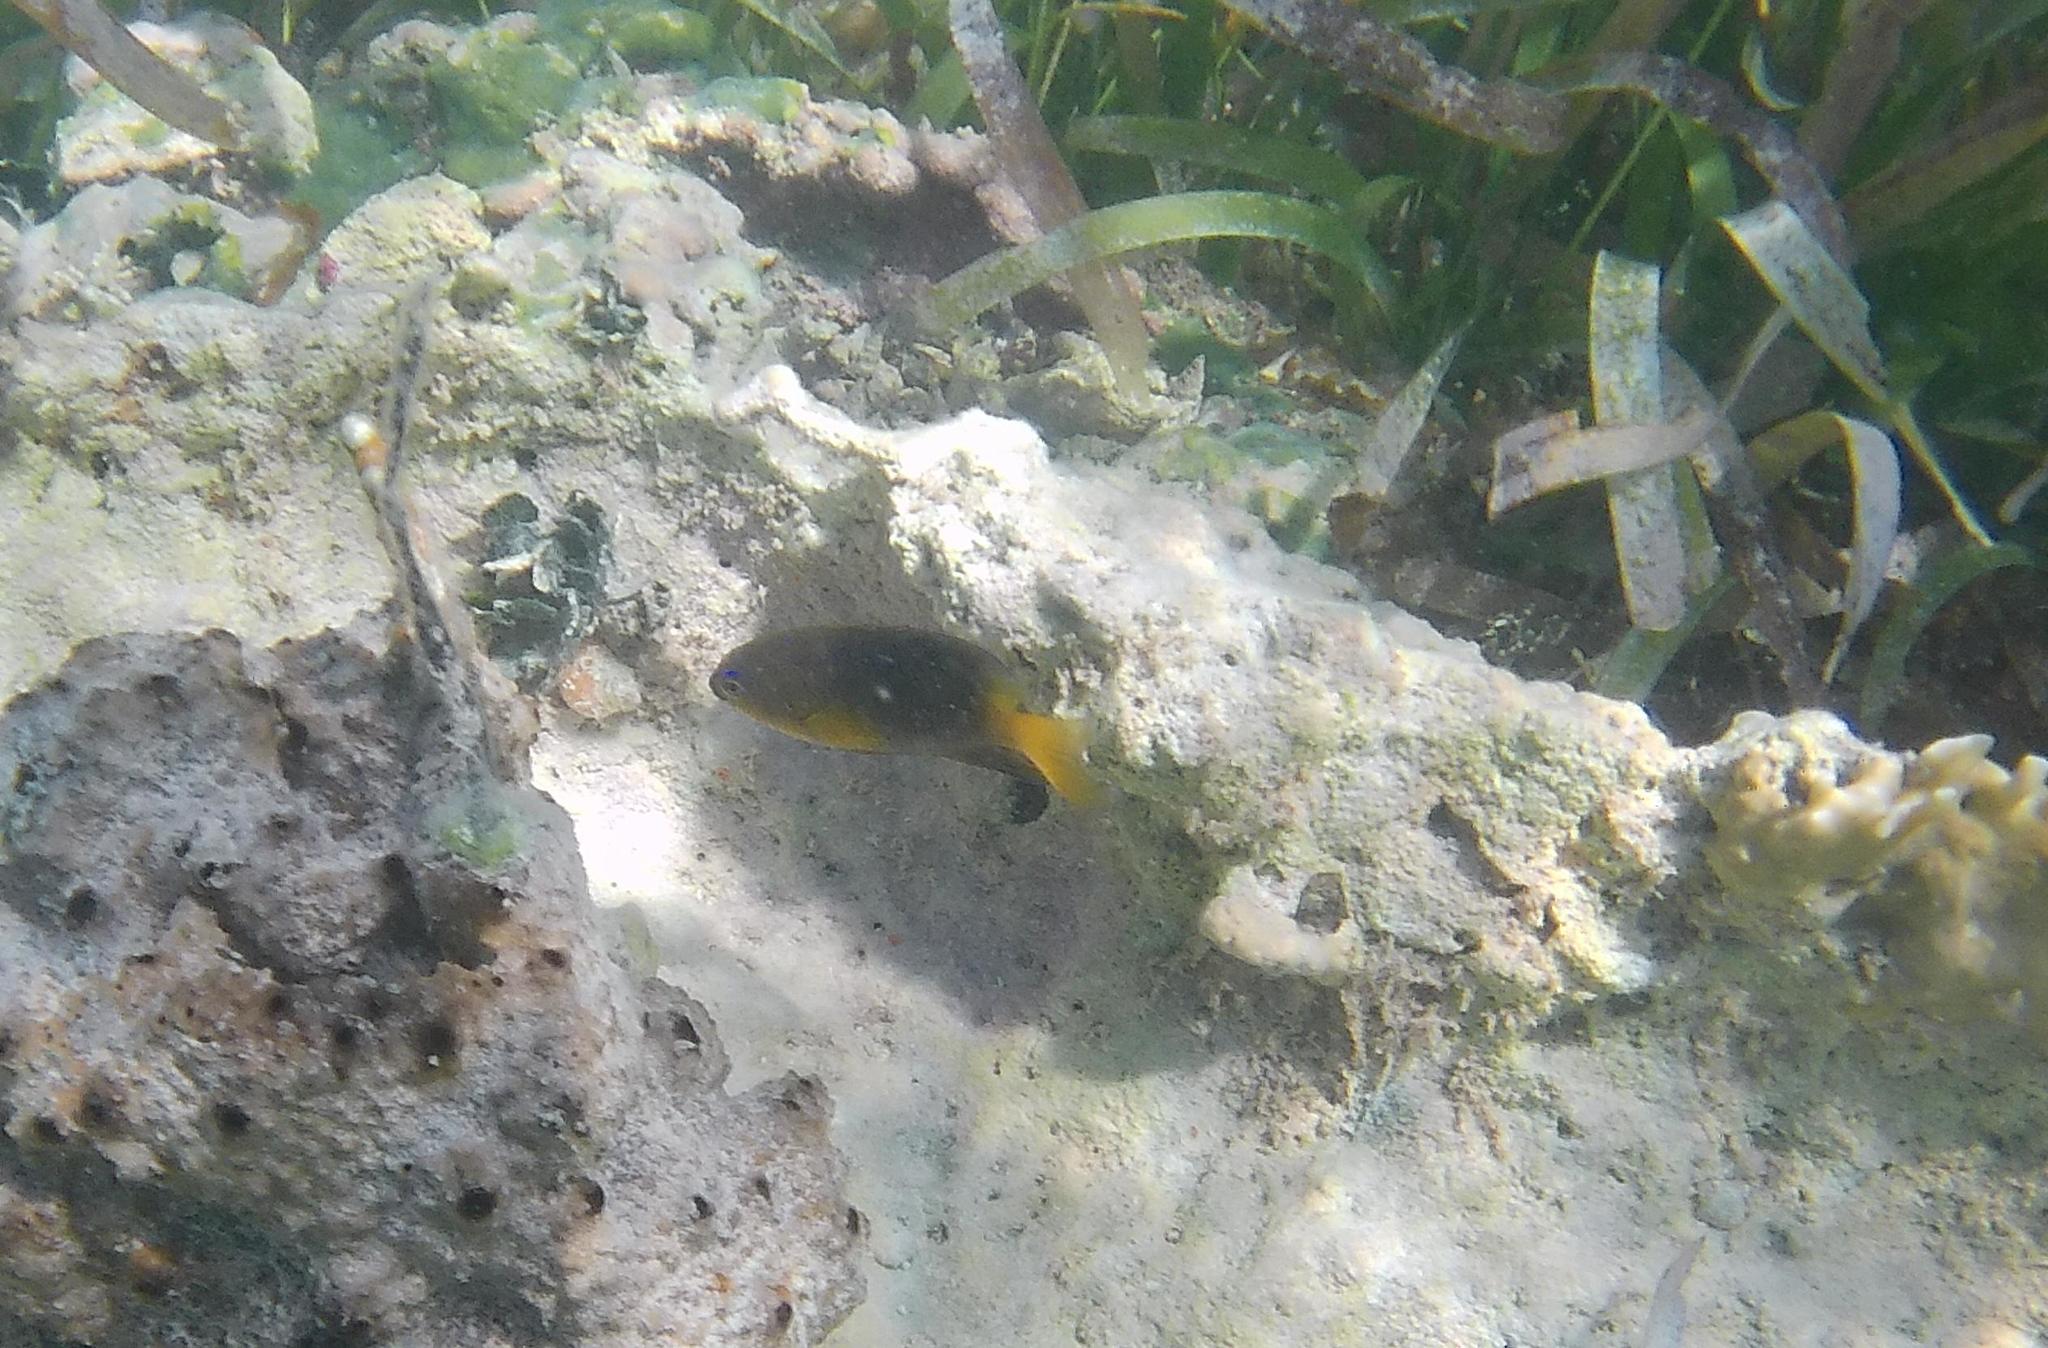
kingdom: Animalia
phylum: Chordata
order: Perciformes
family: Pomacentridae
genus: Stegastes
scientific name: Stegastes leucostictus
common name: Beaugregory
